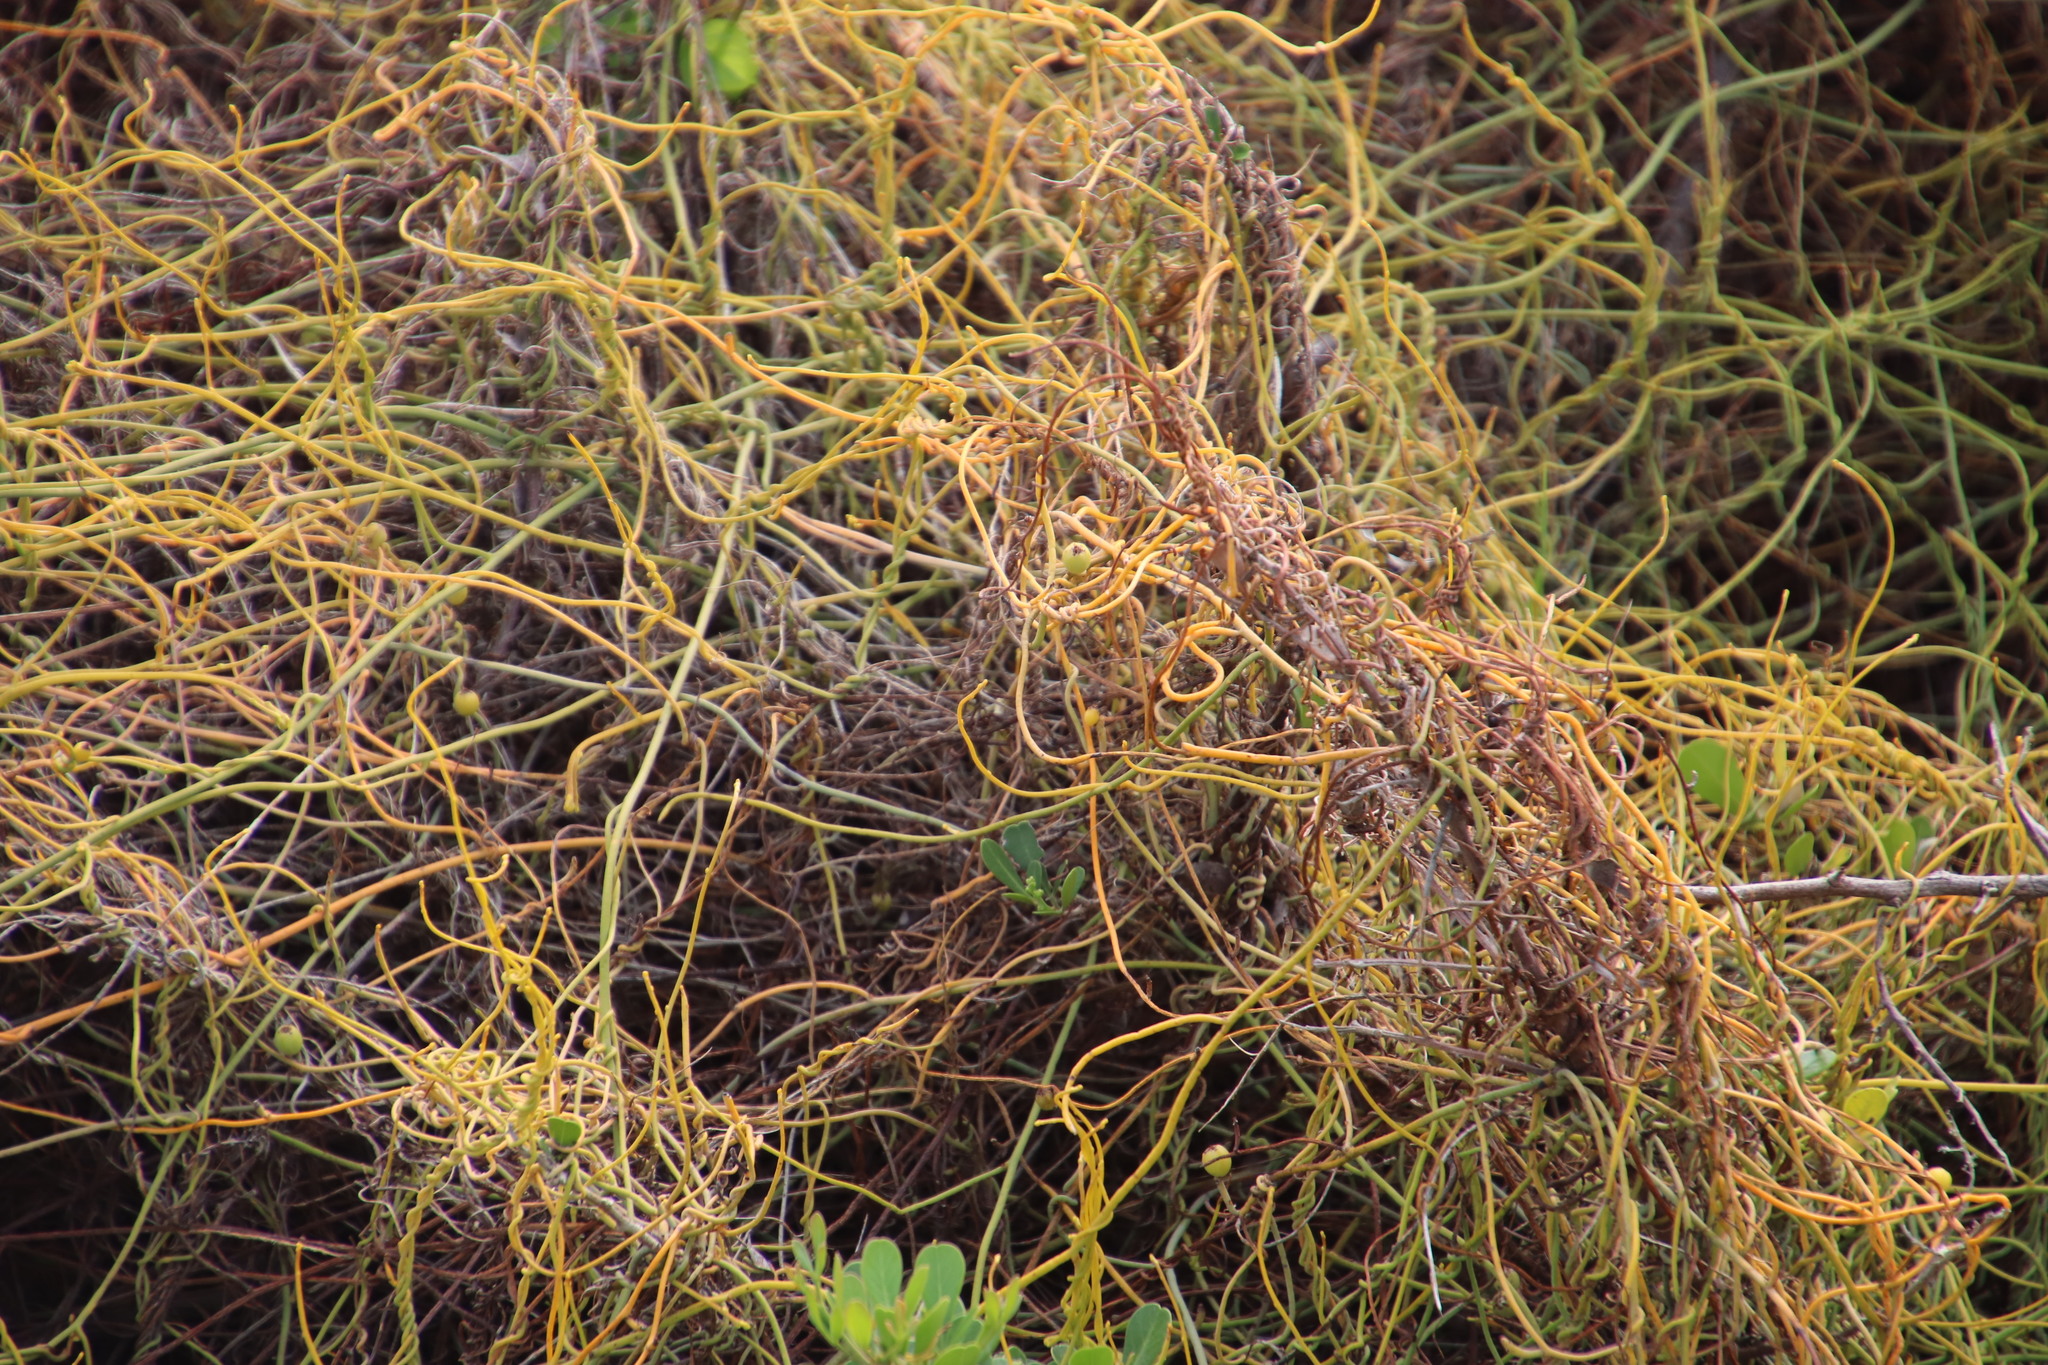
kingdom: Plantae
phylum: Tracheophyta
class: Magnoliopsida
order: Laurales
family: Lauraceae
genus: Cassytha
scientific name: Cassytha ciliolata
